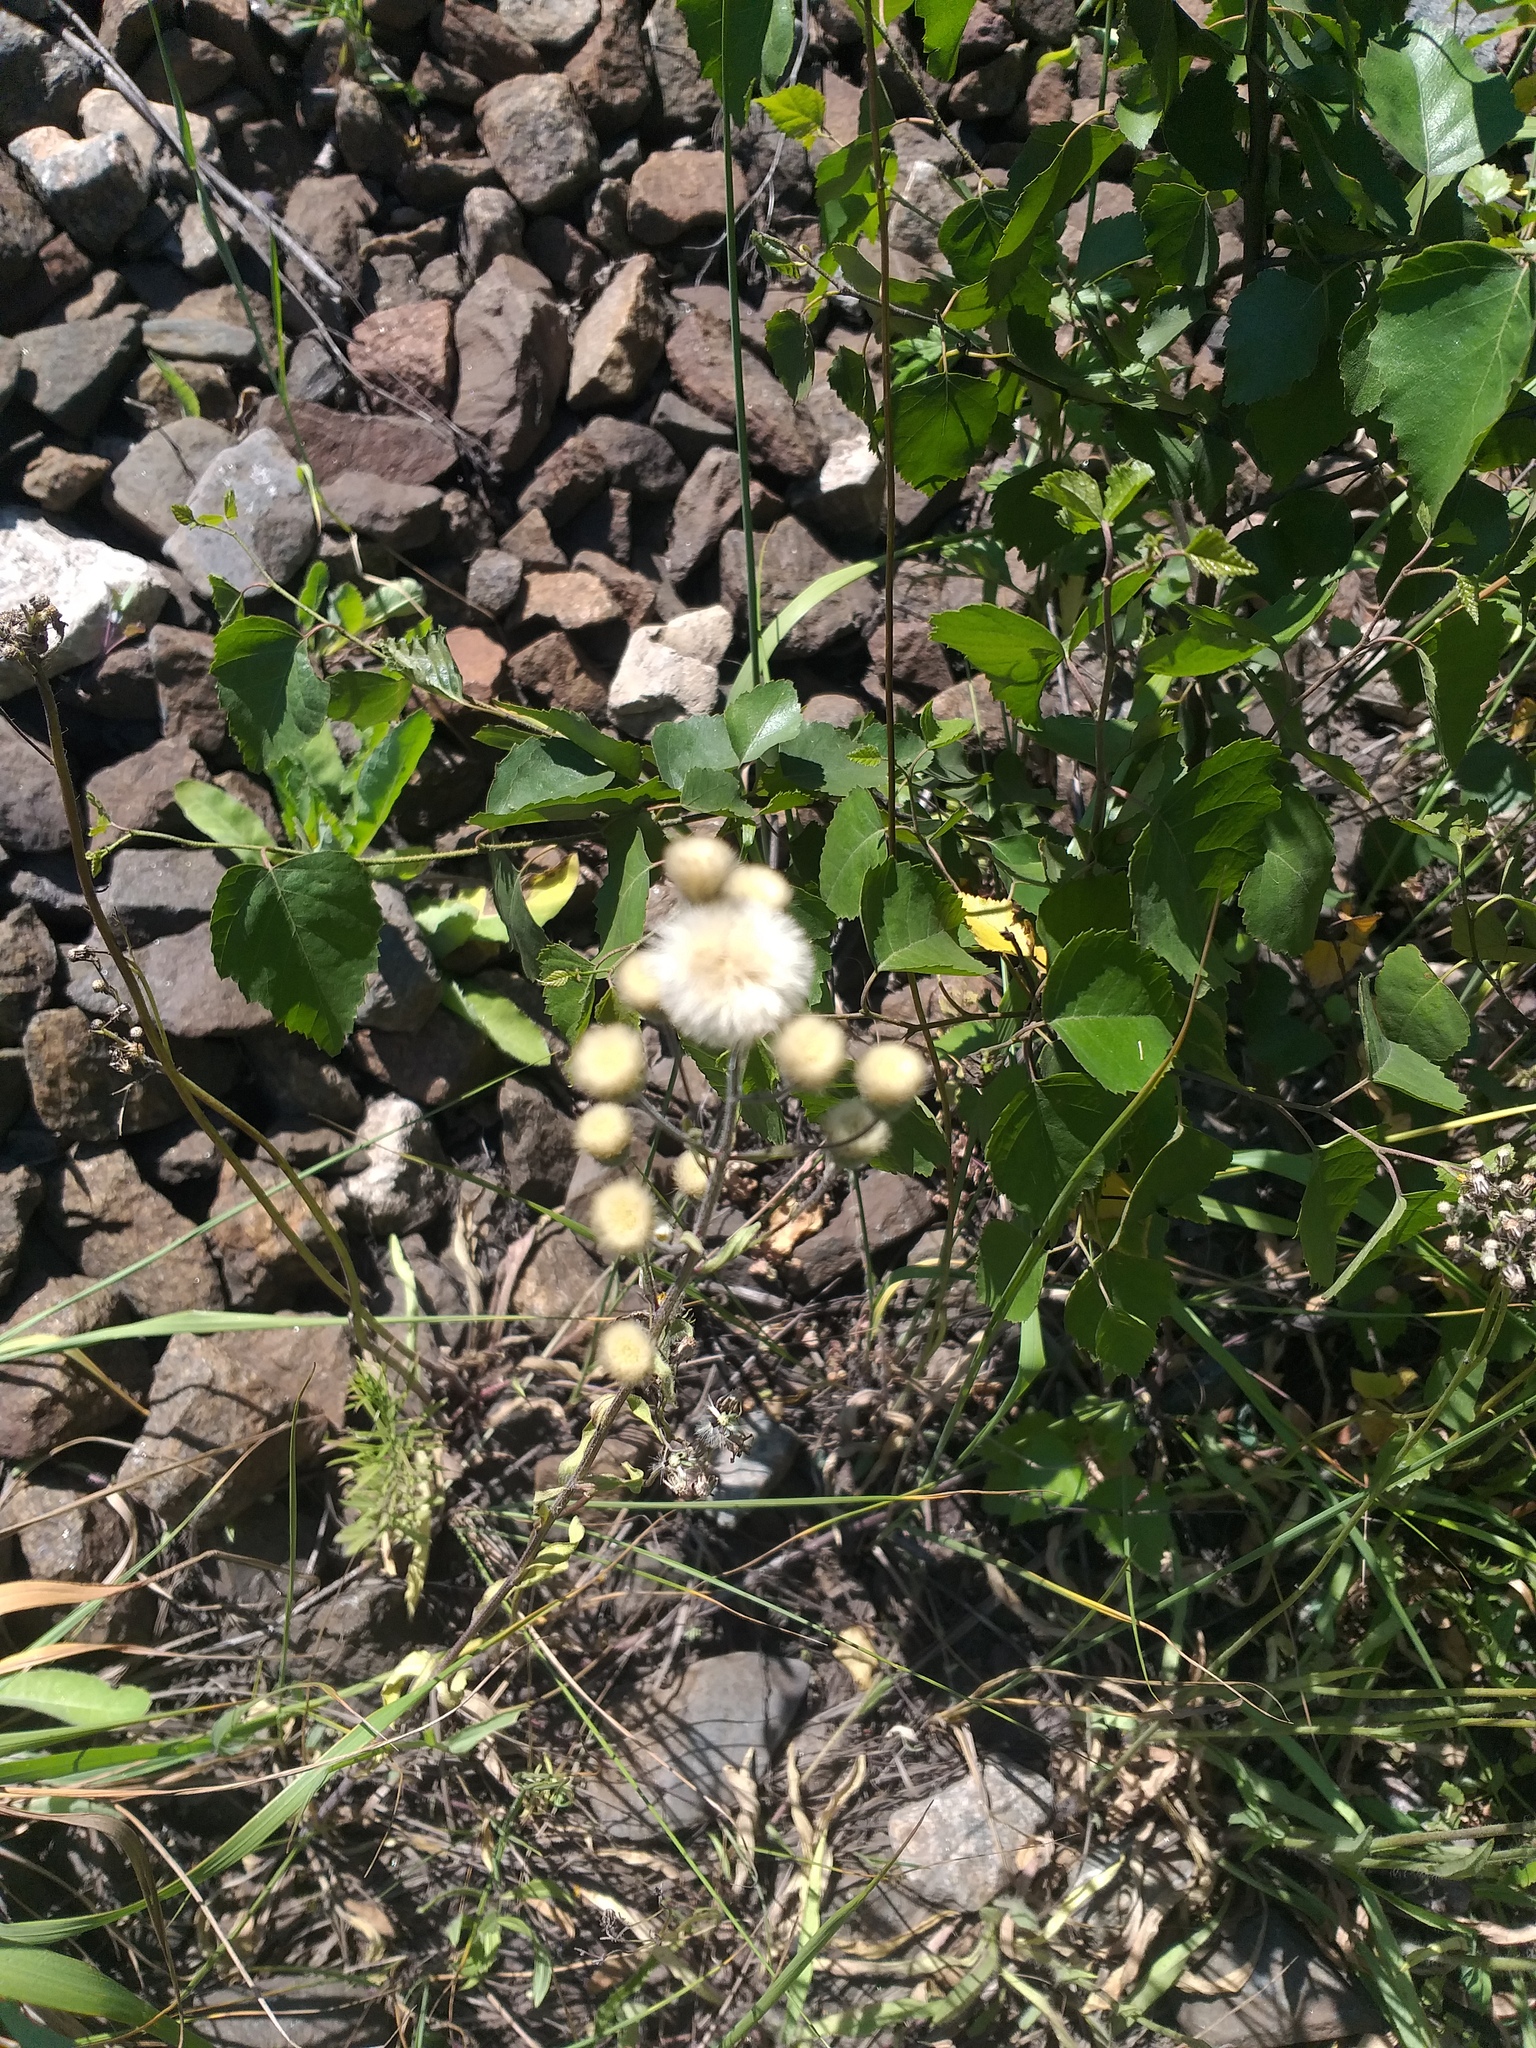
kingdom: Plantae
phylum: Tracheophyta
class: Magnoliopsida
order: Asterales
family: Asteraceae
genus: Erigeron
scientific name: Erigeron acris
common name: Blue fleabane
